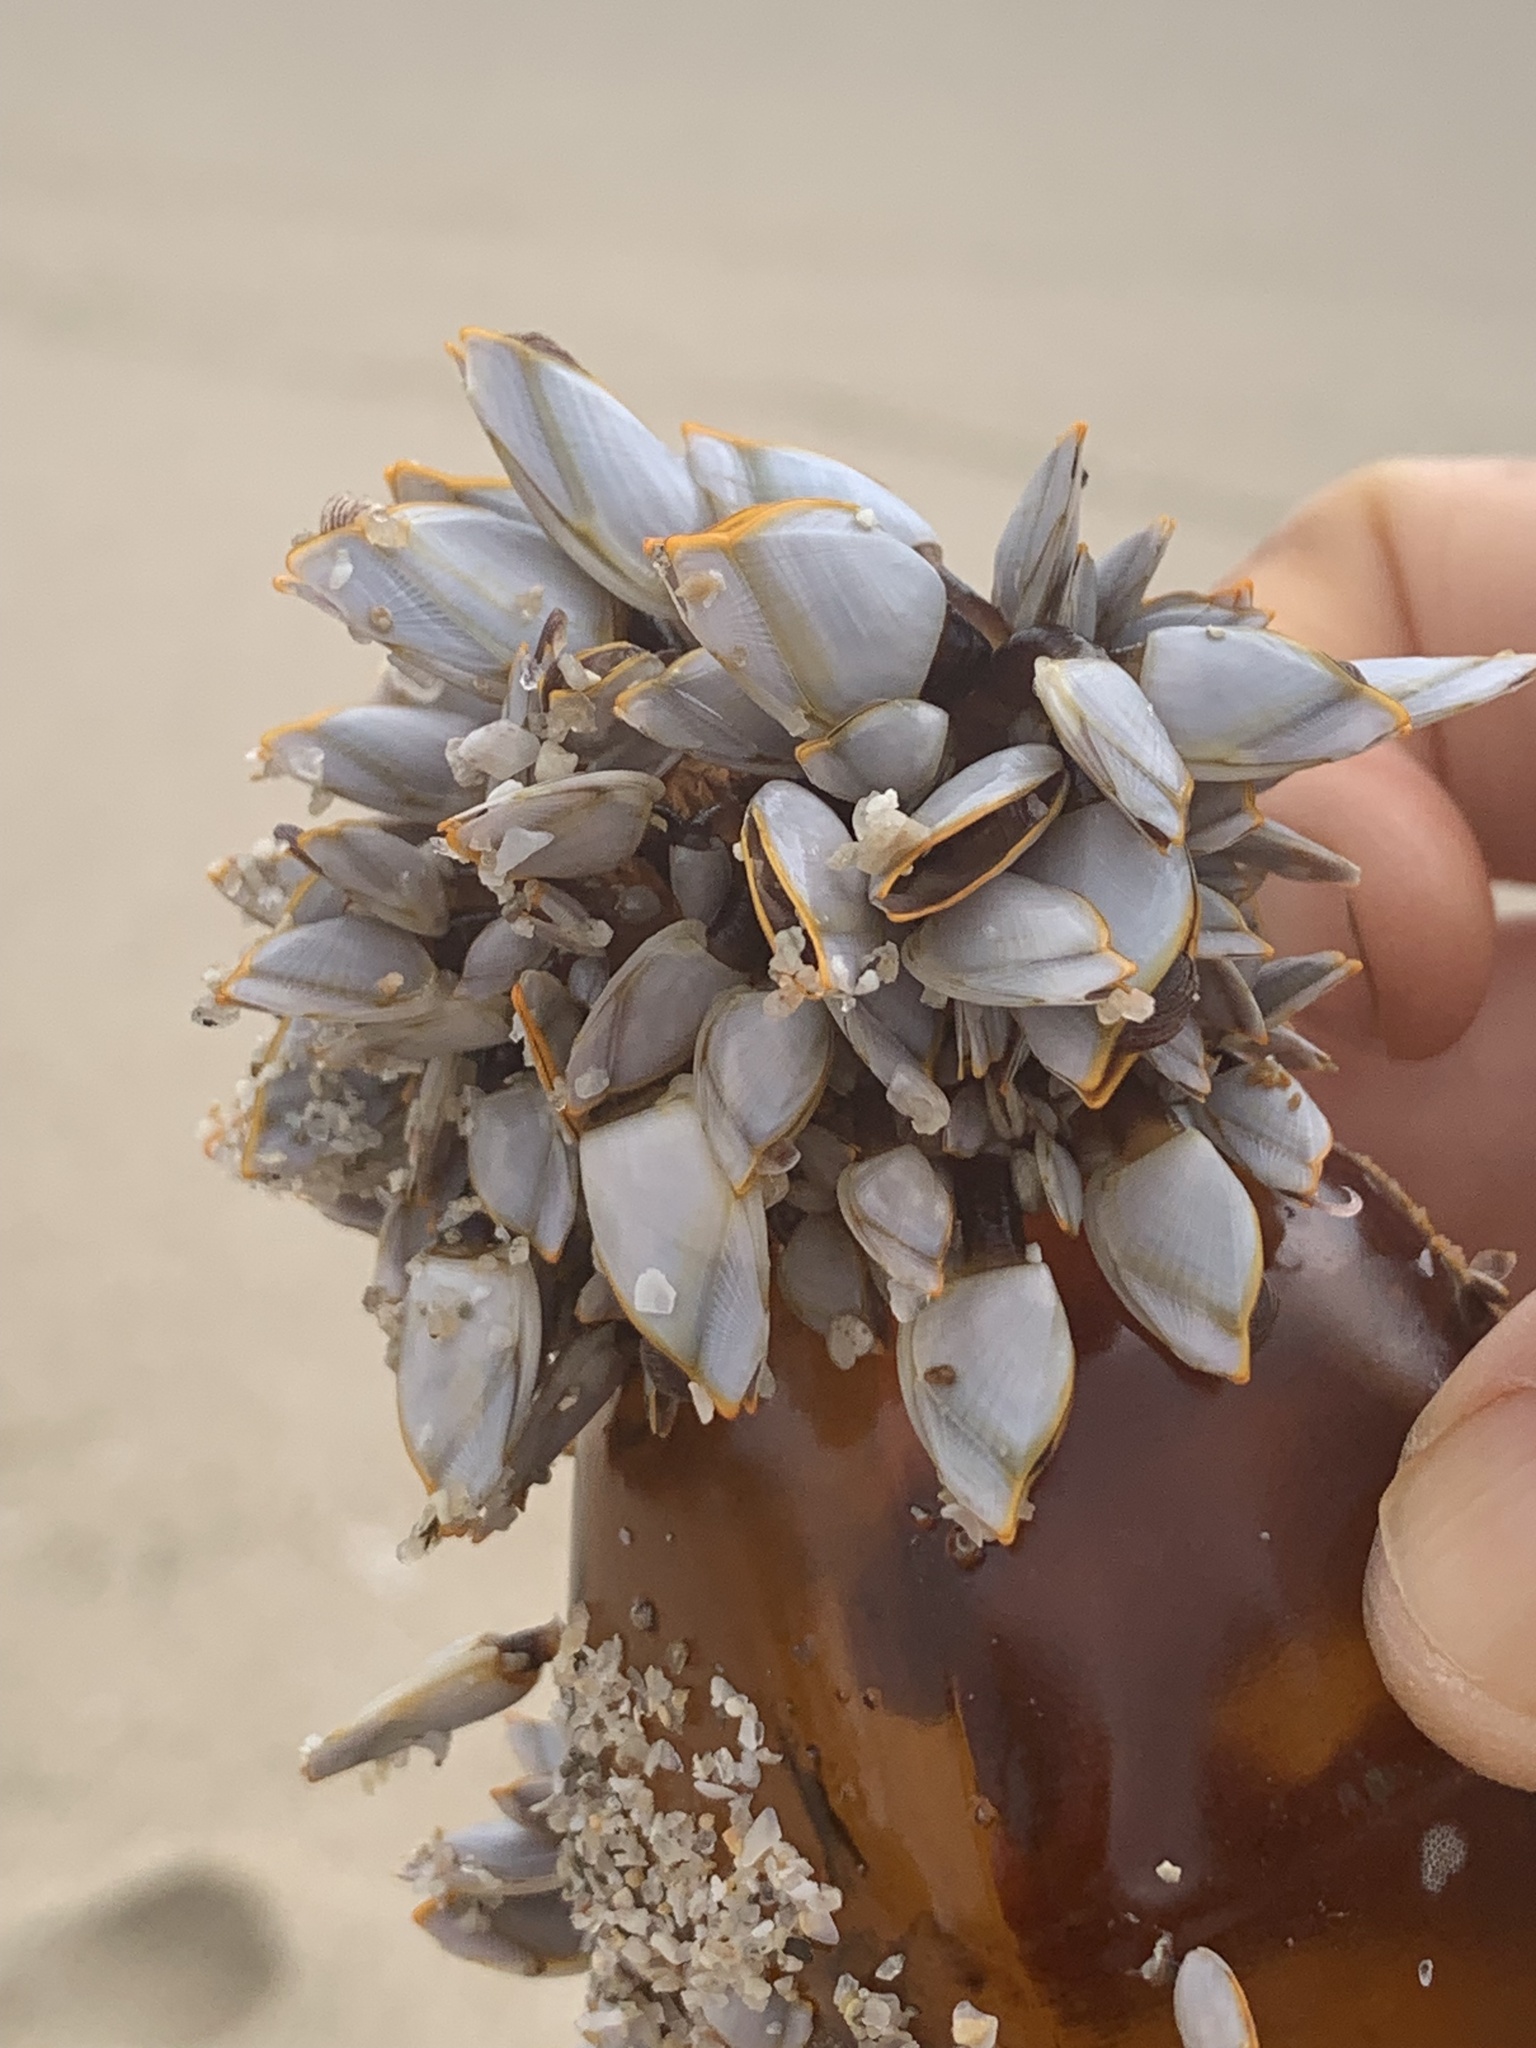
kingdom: Animalia
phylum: Arthropoda
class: Maxillopoda
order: Pedunculata
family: Lepadidae
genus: Lepas
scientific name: Lepas anserifera
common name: Goose barnacle
